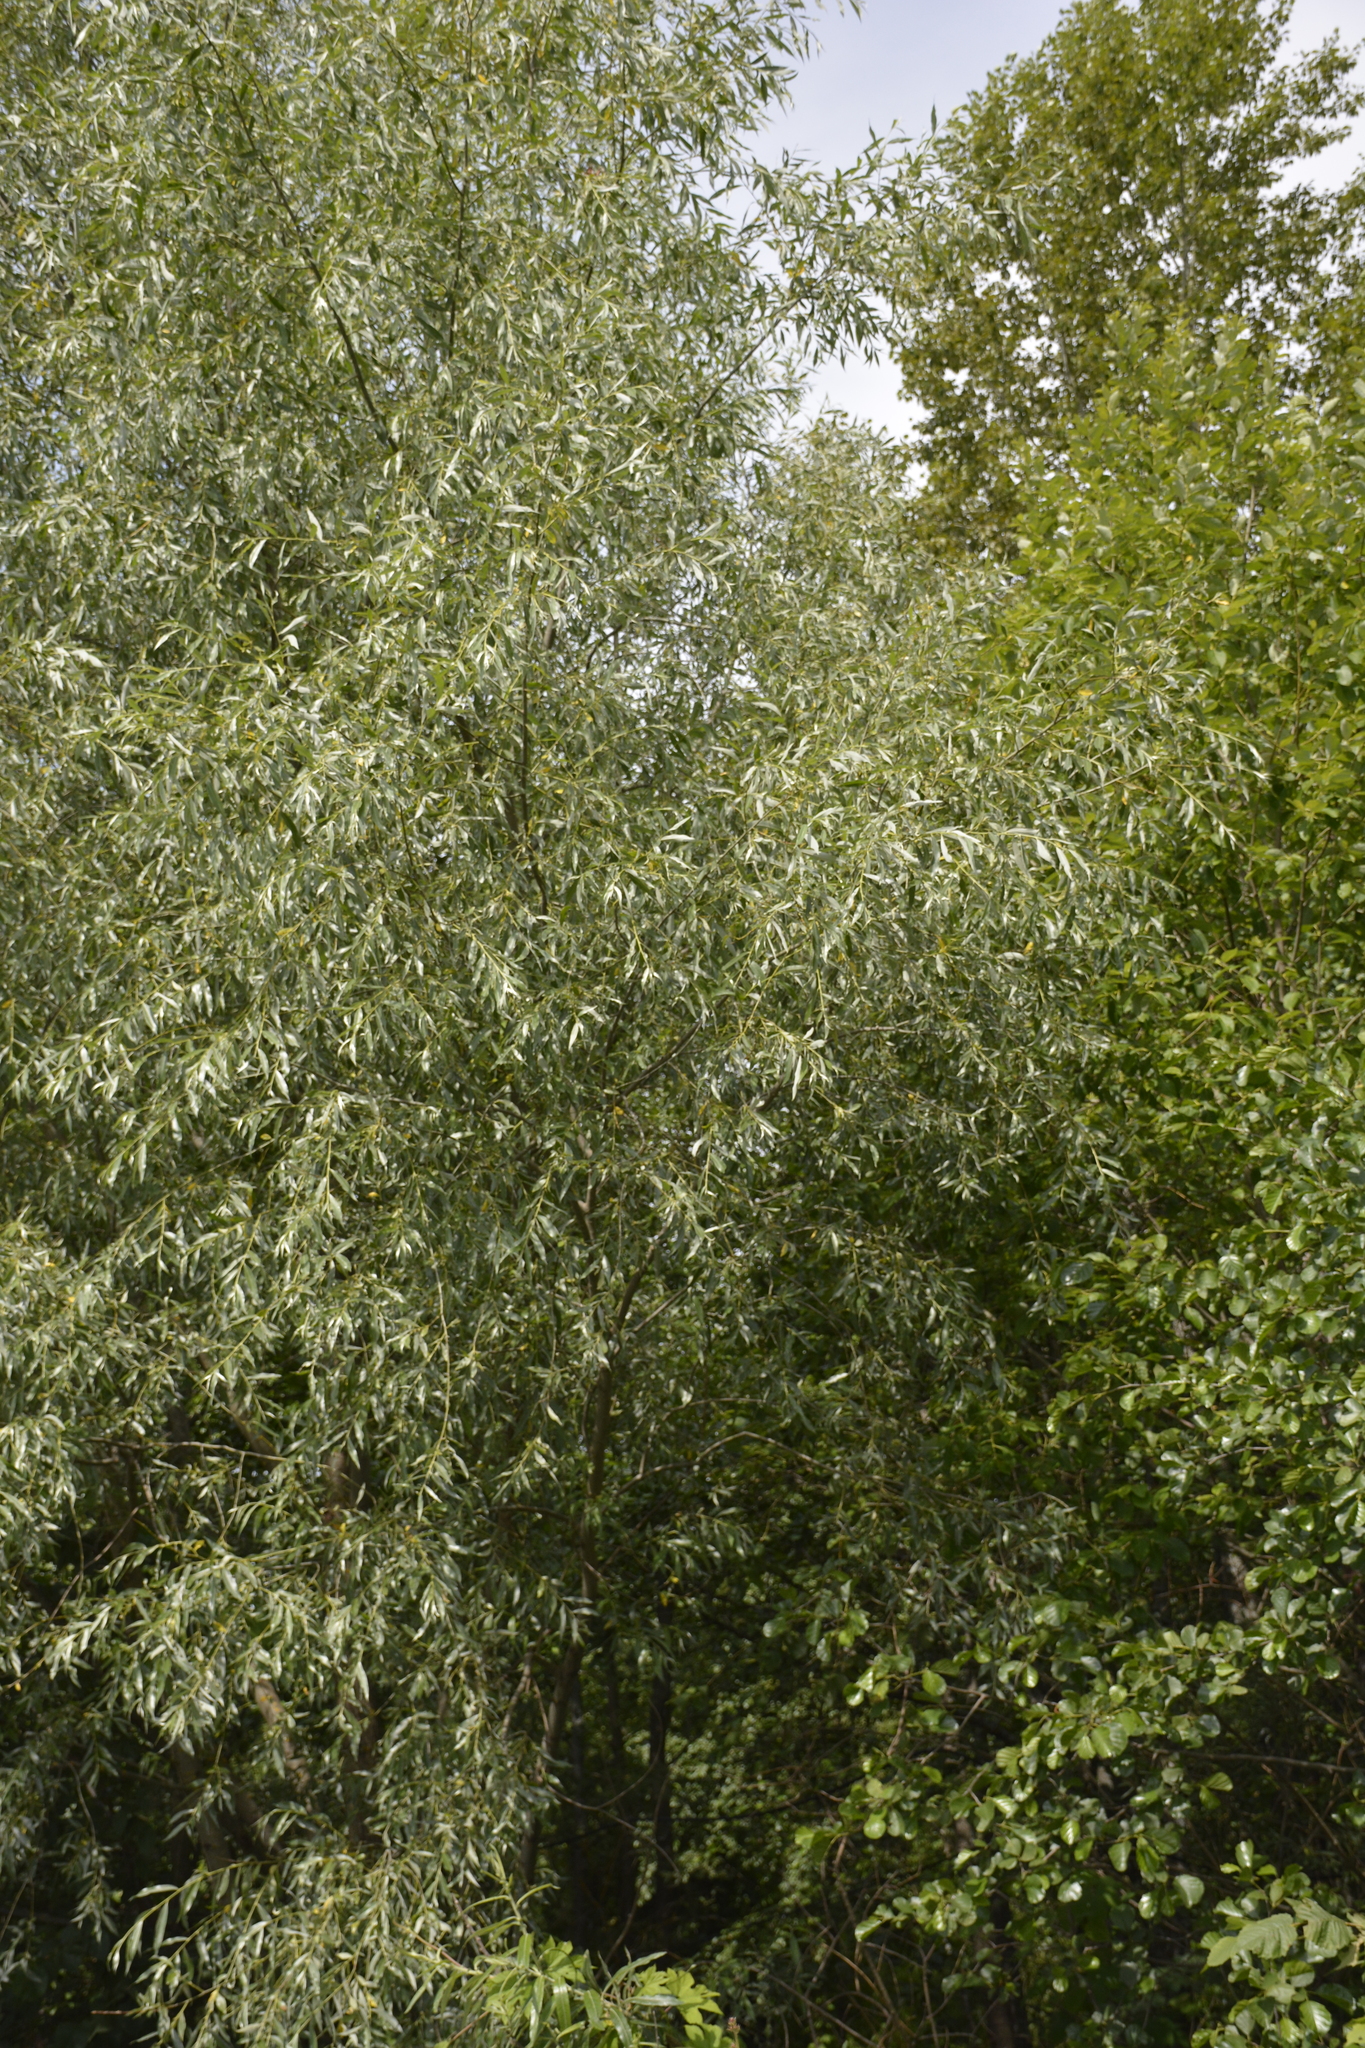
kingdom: Plantae
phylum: Tracheophyta
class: Magnoliopsida
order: Malpighiales
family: Salicaceae
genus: Salix
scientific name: Salix alba
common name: White willow
